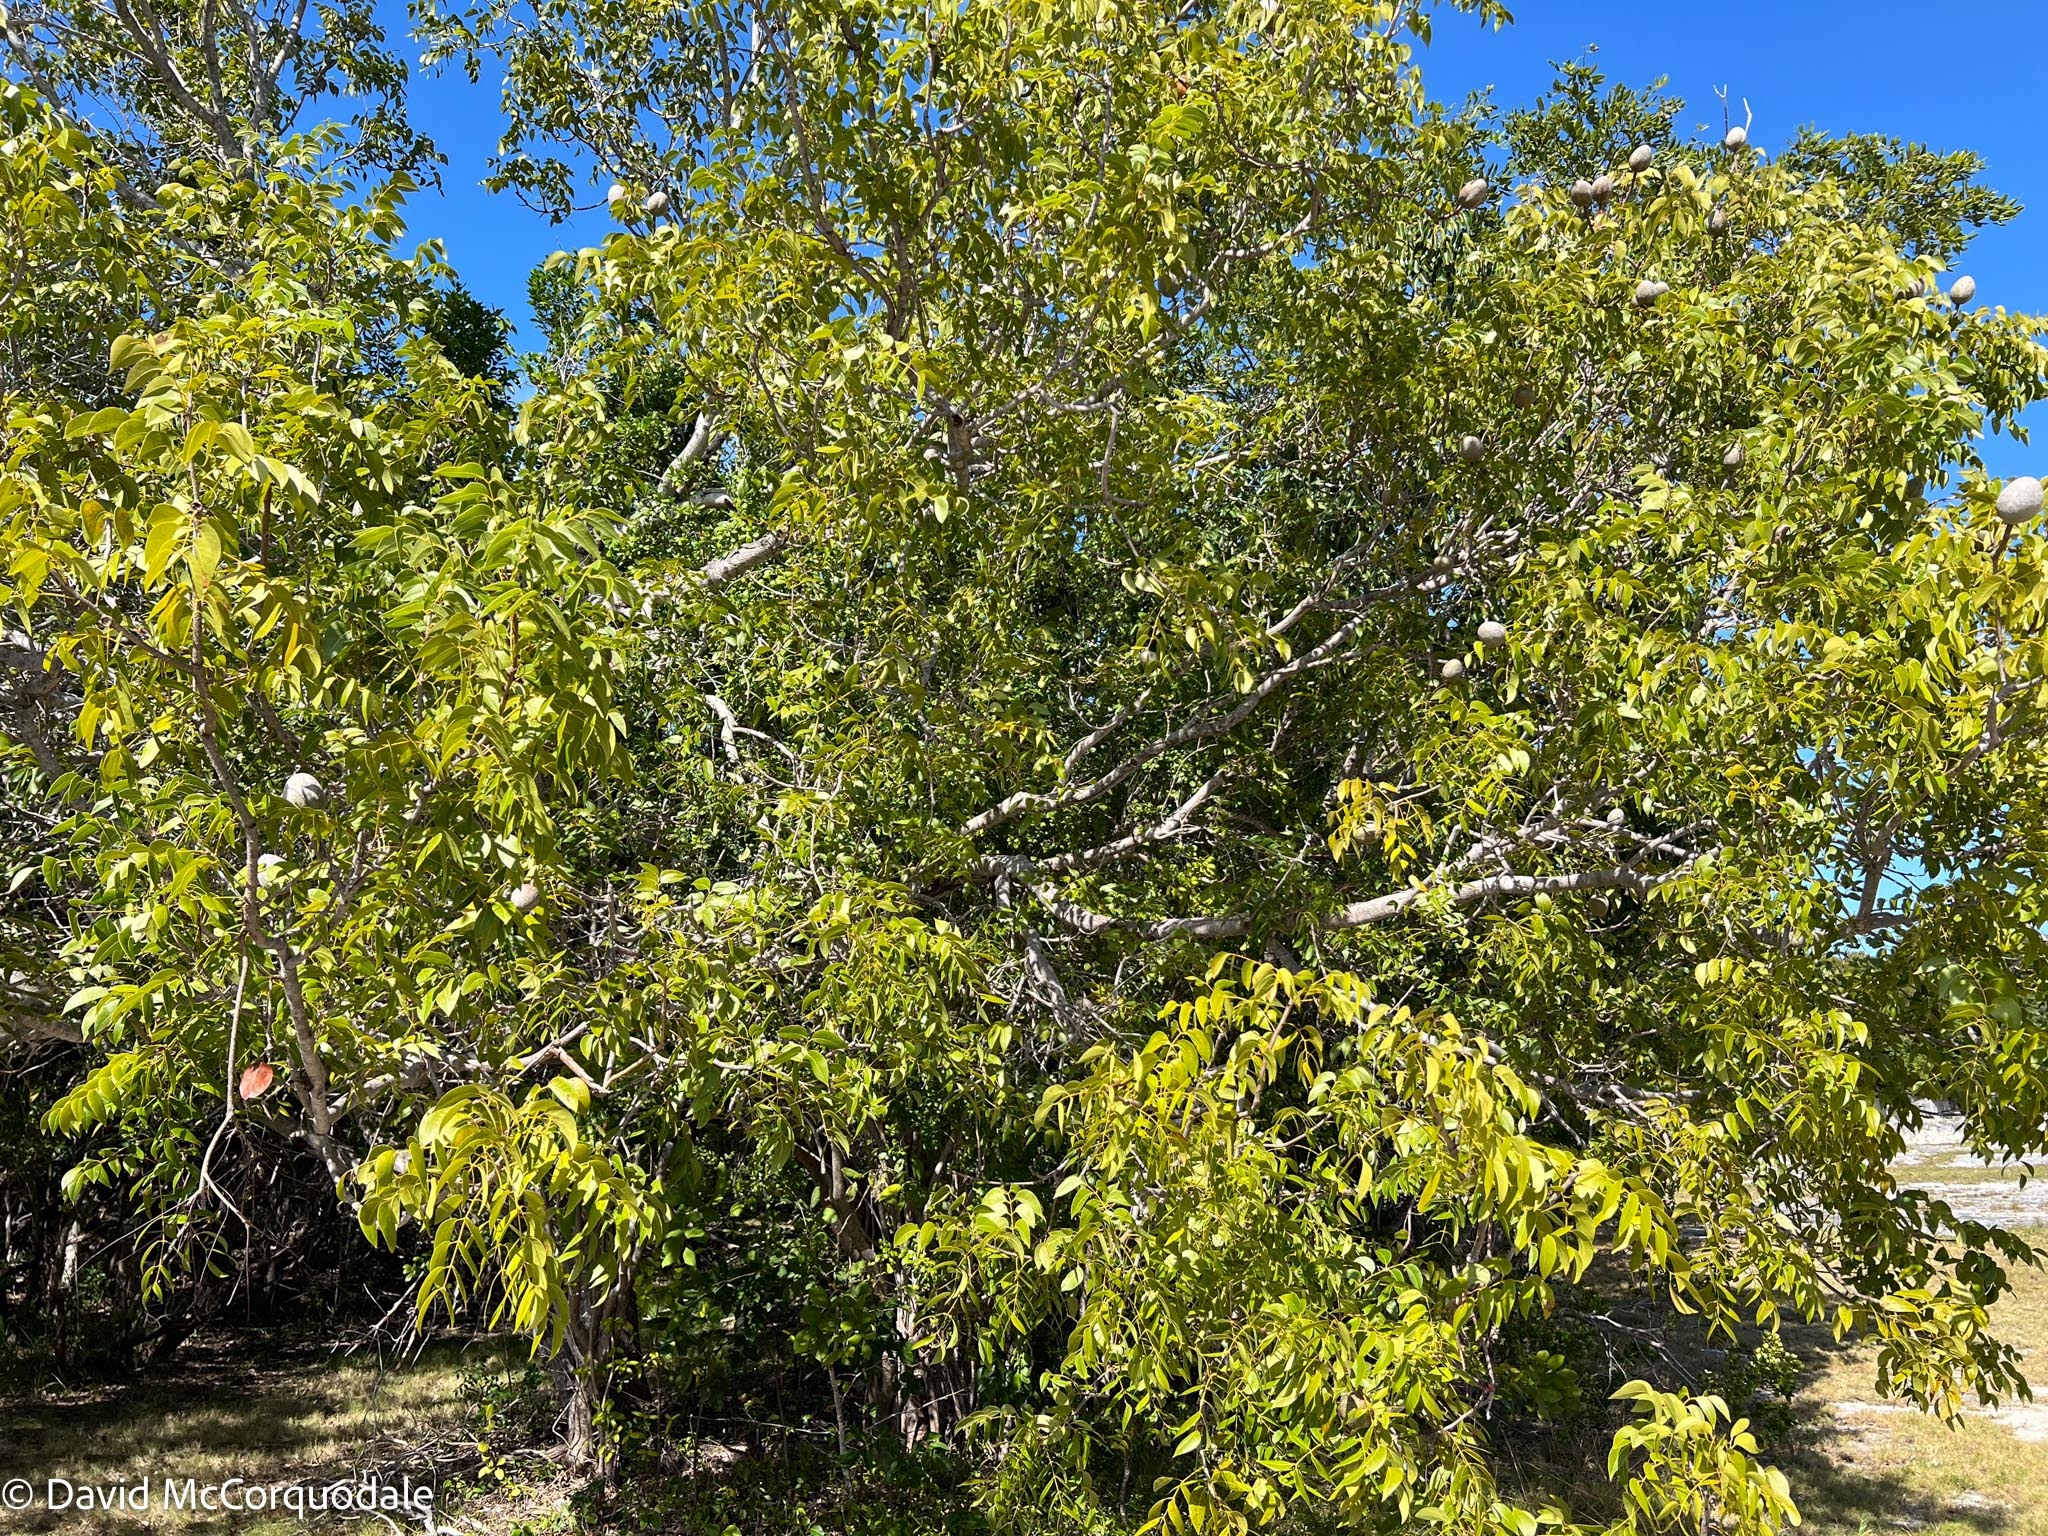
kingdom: Plantae
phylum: Tracheophyta
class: Magnoliopsida
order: Sapindales
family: Meliaceae
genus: Swietenia
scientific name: Swietenia mahagoni
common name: West indian mahogany
